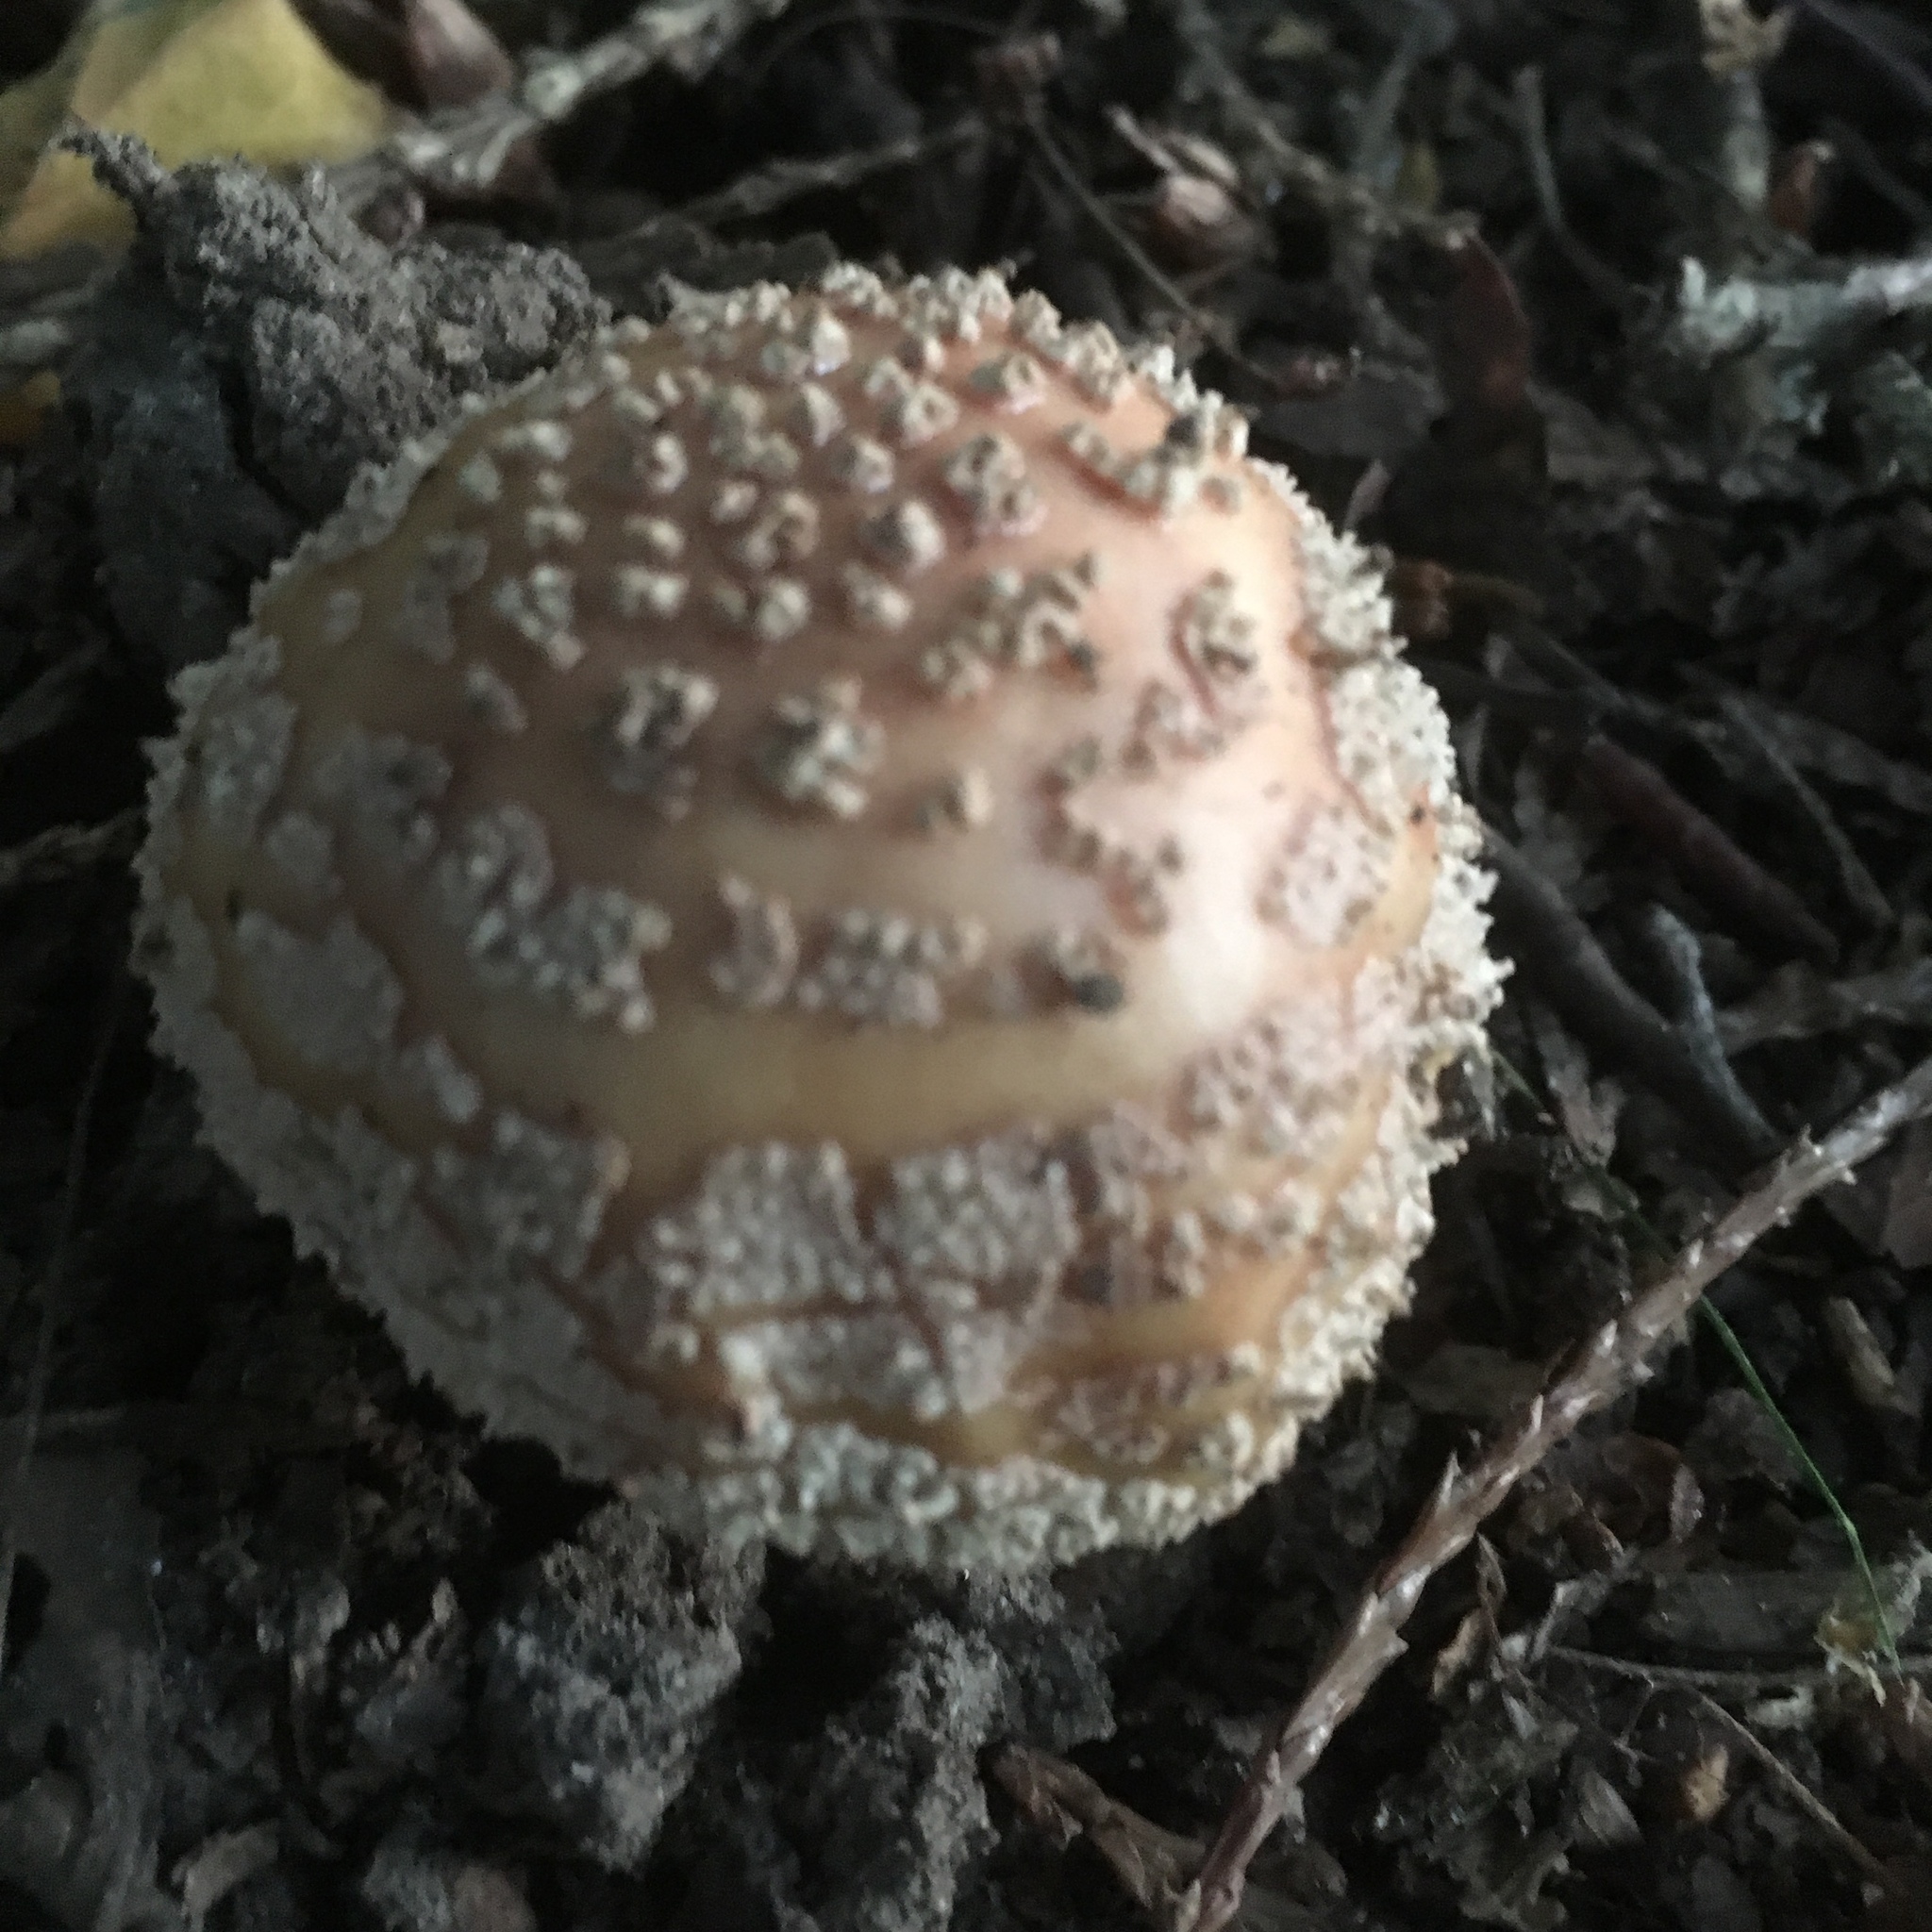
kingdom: Fungi
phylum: Basidiomycota
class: Agaricomycetes
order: Agaricales
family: Amanitaceae
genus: Amanita
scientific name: Amanita rubescens
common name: Blusher
